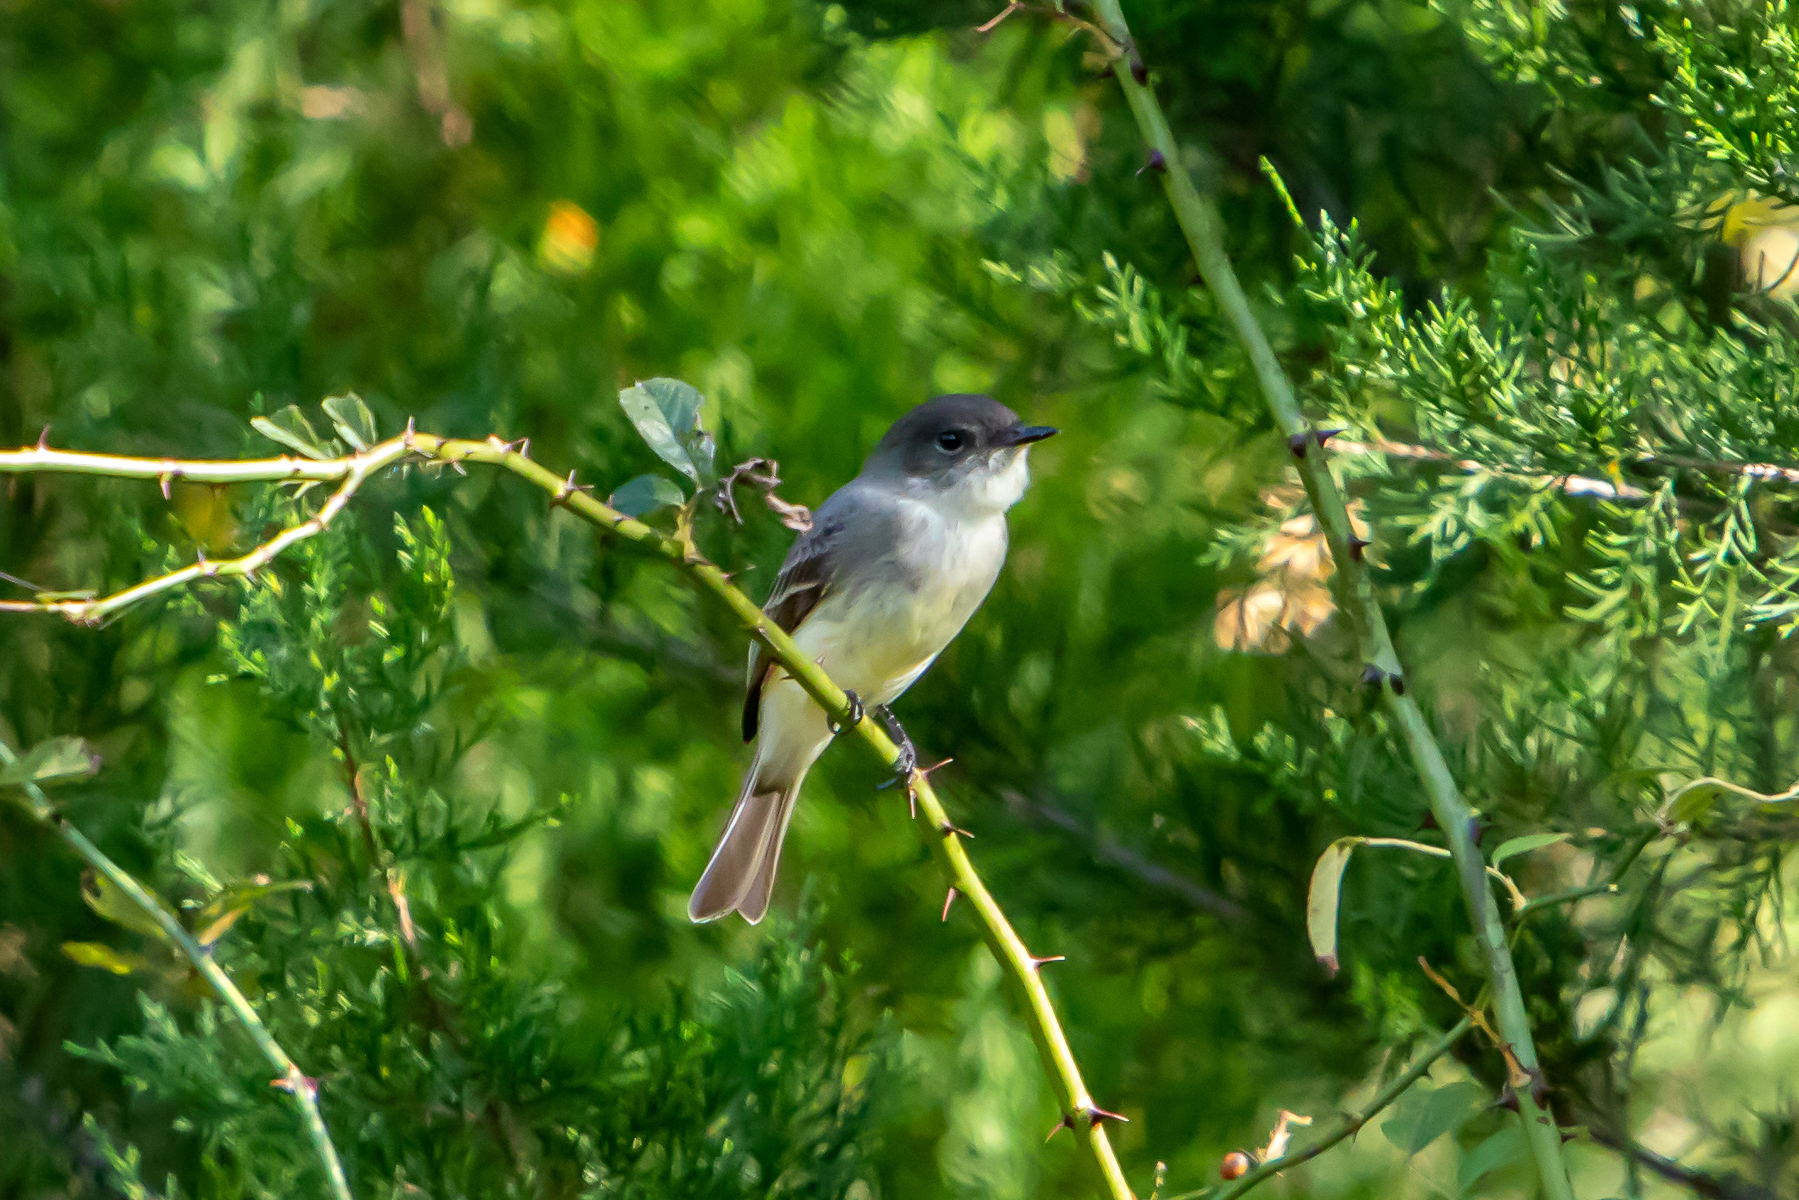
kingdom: Animalia
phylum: Chordata
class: Aves
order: Passeriformes
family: Tyrannidae
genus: Sayornis
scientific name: Sayornis phoebe
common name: Eastern phoebe
